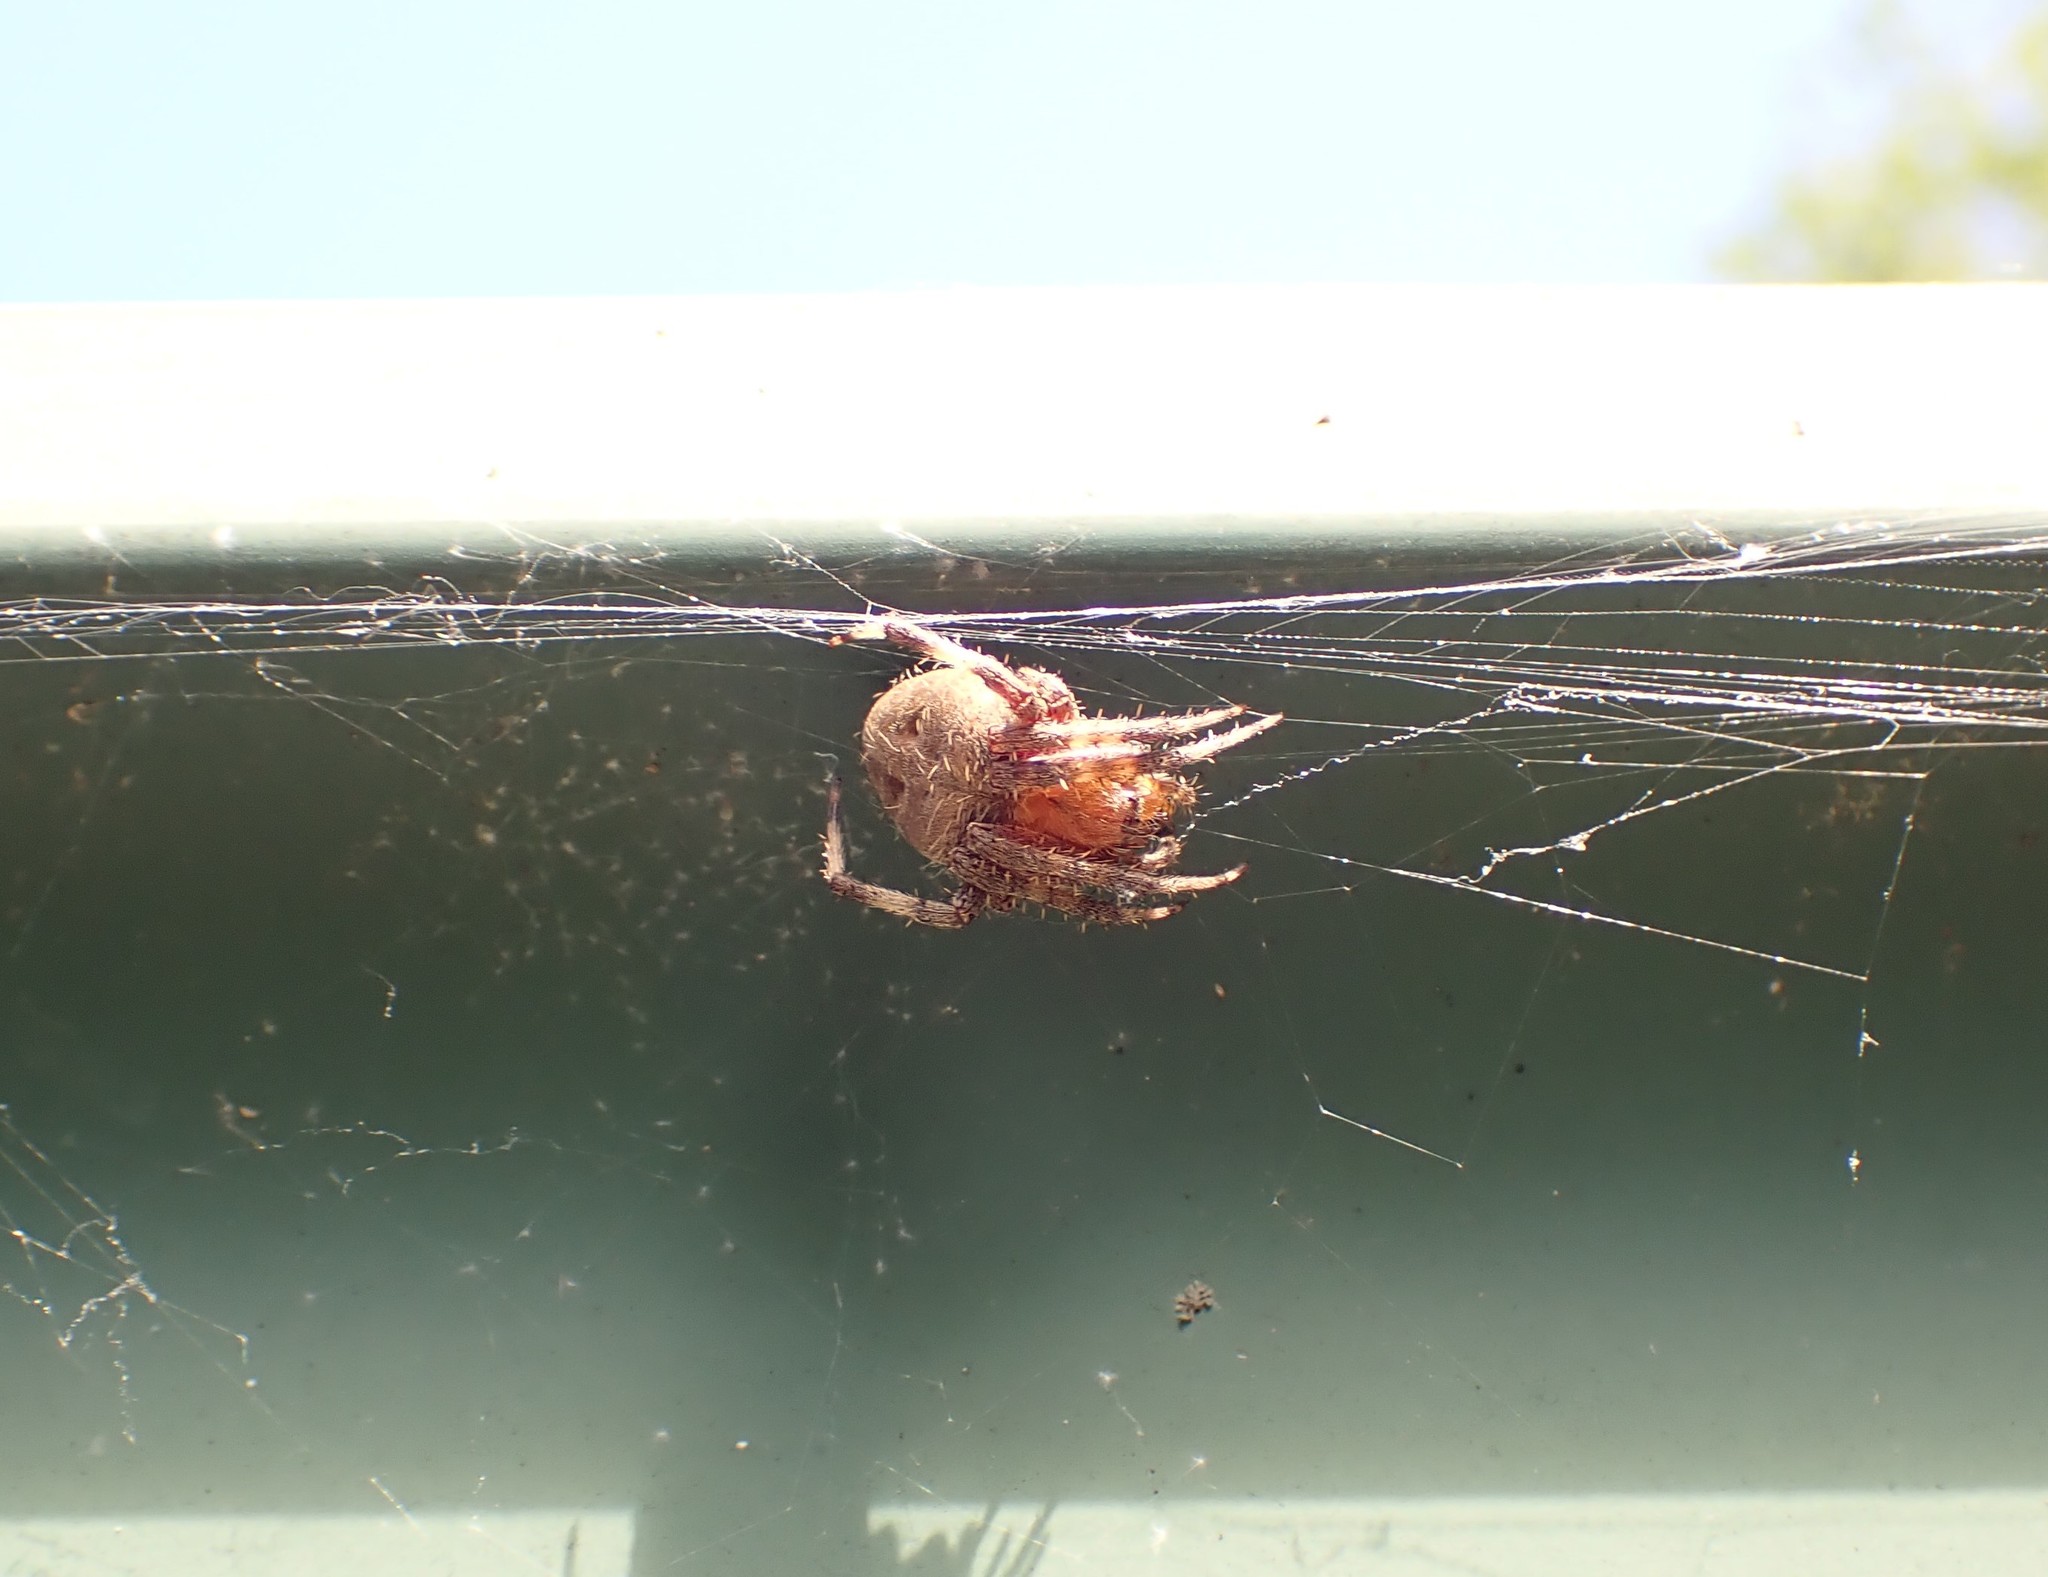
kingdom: Animalia
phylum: Arthropoda
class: Arachnida
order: Araneae
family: Araneidae
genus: Neoscona
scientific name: Neoscona crucifera
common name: Spotted orbweaver
